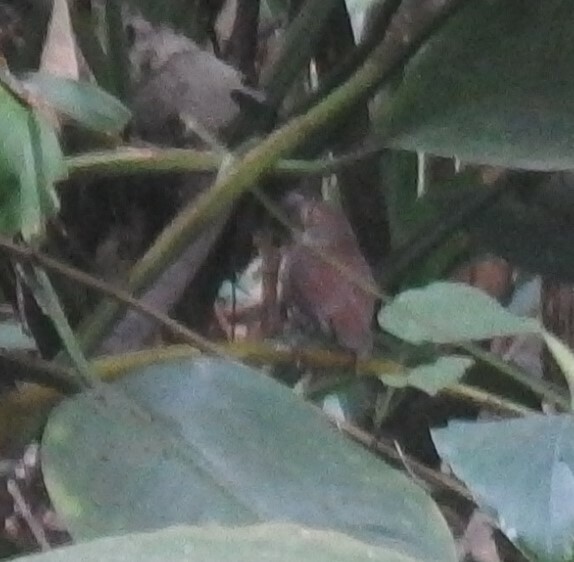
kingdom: Animalia
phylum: Chordata
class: Aves
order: Passeriformes
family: Pellorneidae
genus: Trichastoma
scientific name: Trichastoma rostratum
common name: White-chested babbler
